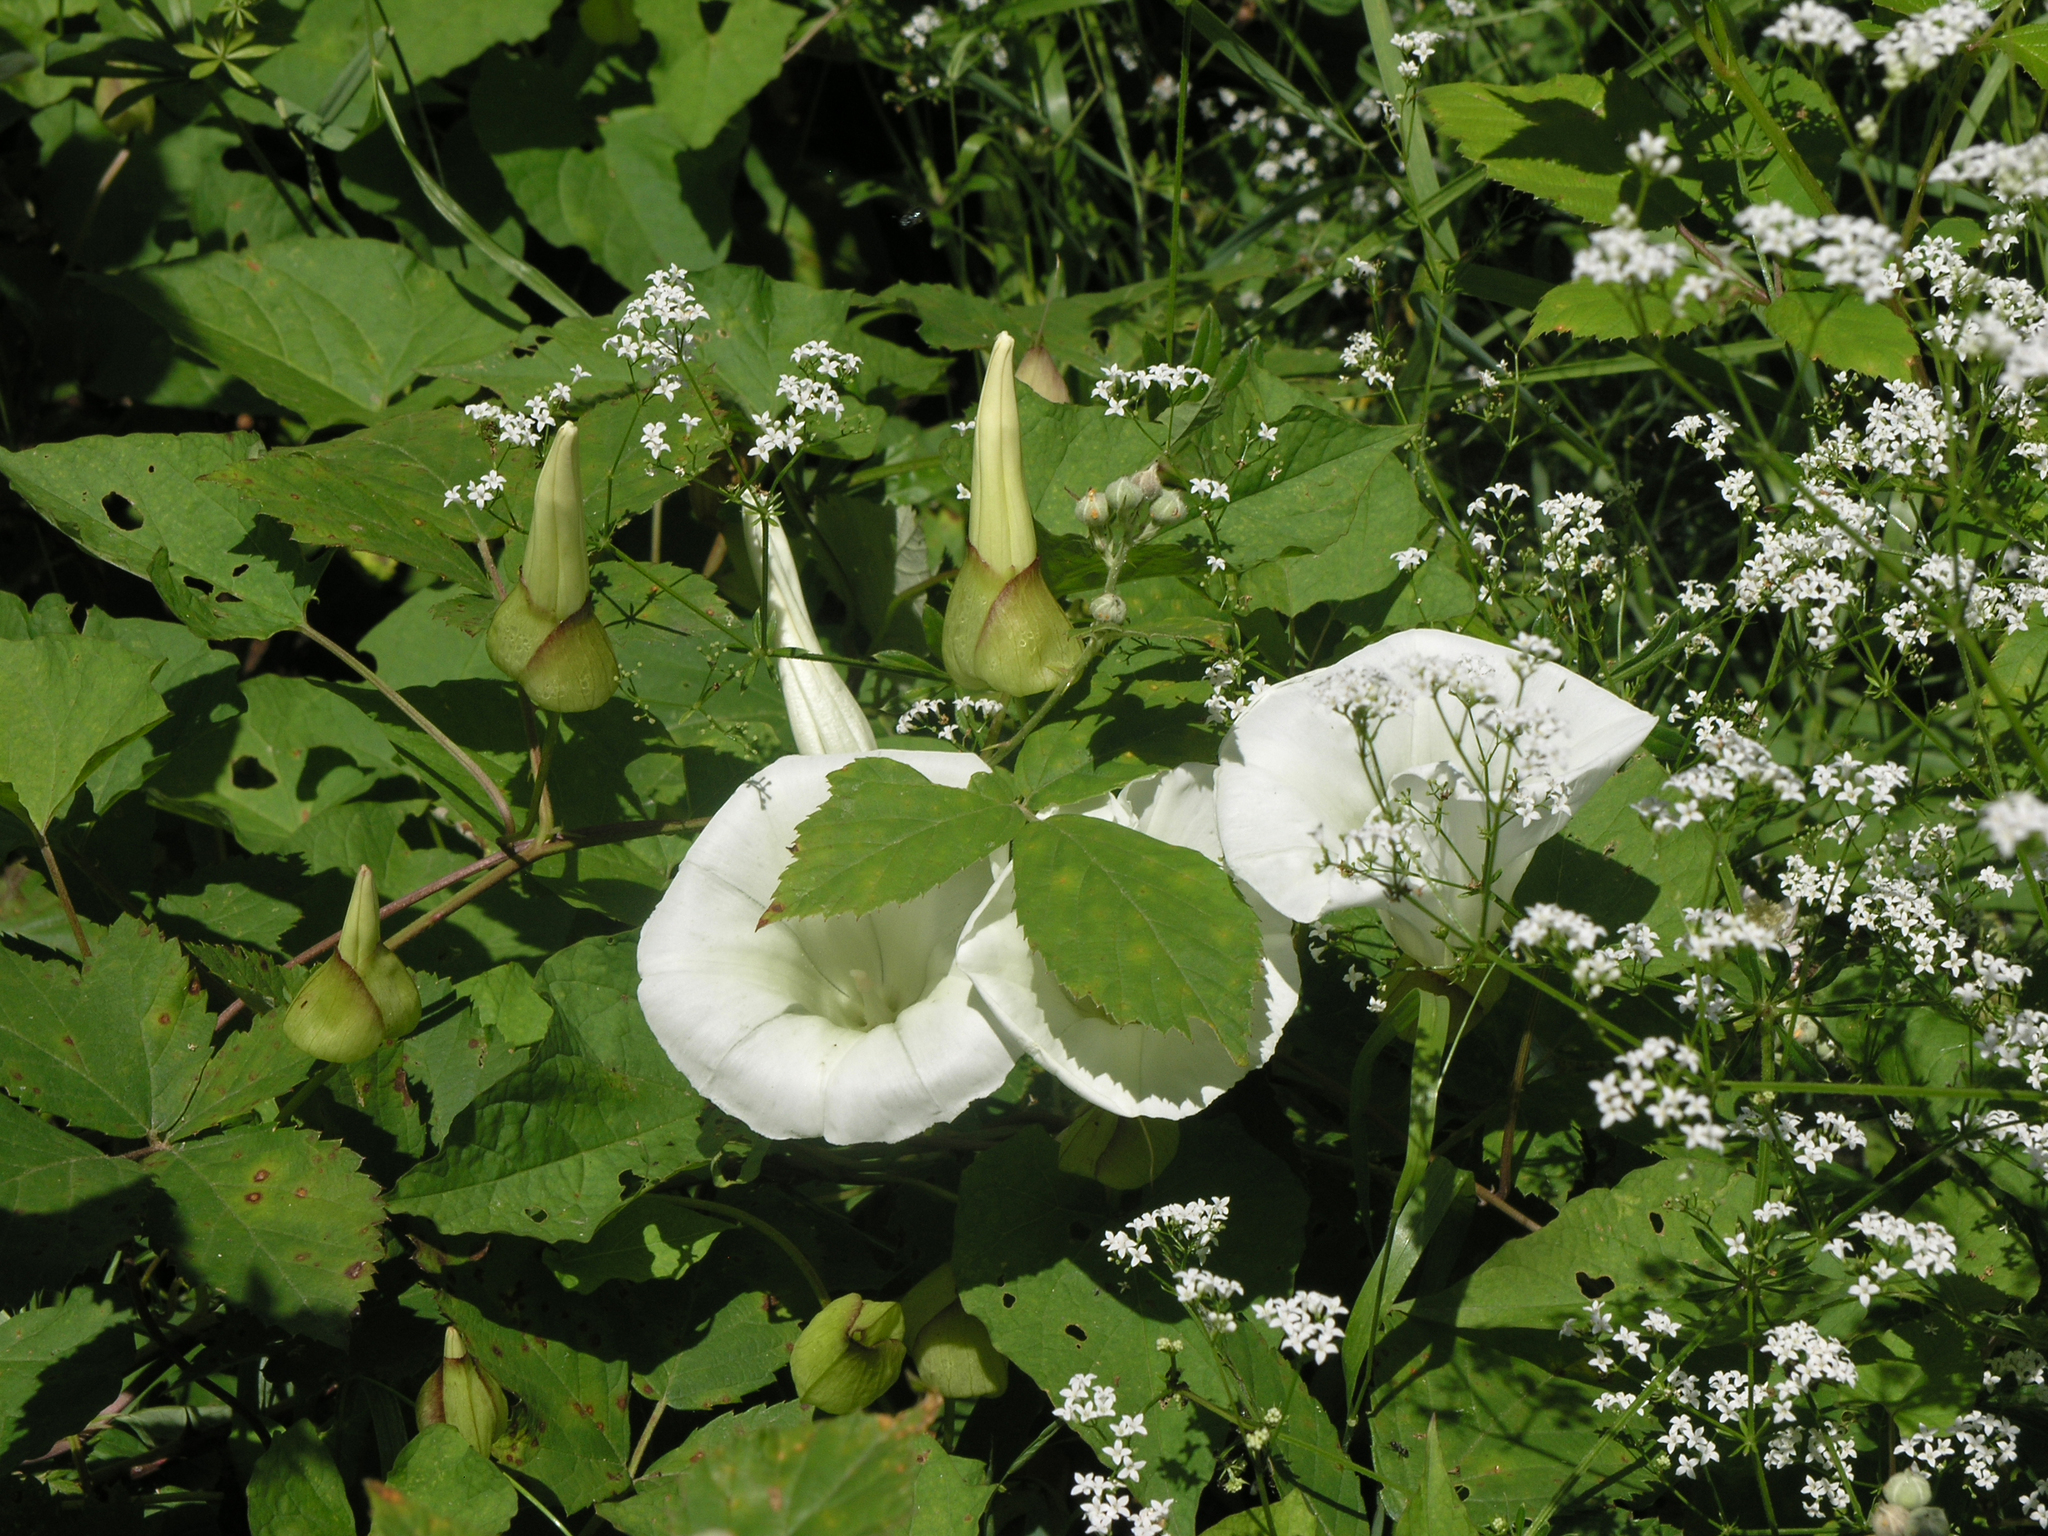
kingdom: Plantae
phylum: Tracheophyta
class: Magnoliopsida
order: Solanales
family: Convolvulaceae
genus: Calystegia
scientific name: Calystegia silvatica
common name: Large bindweed
